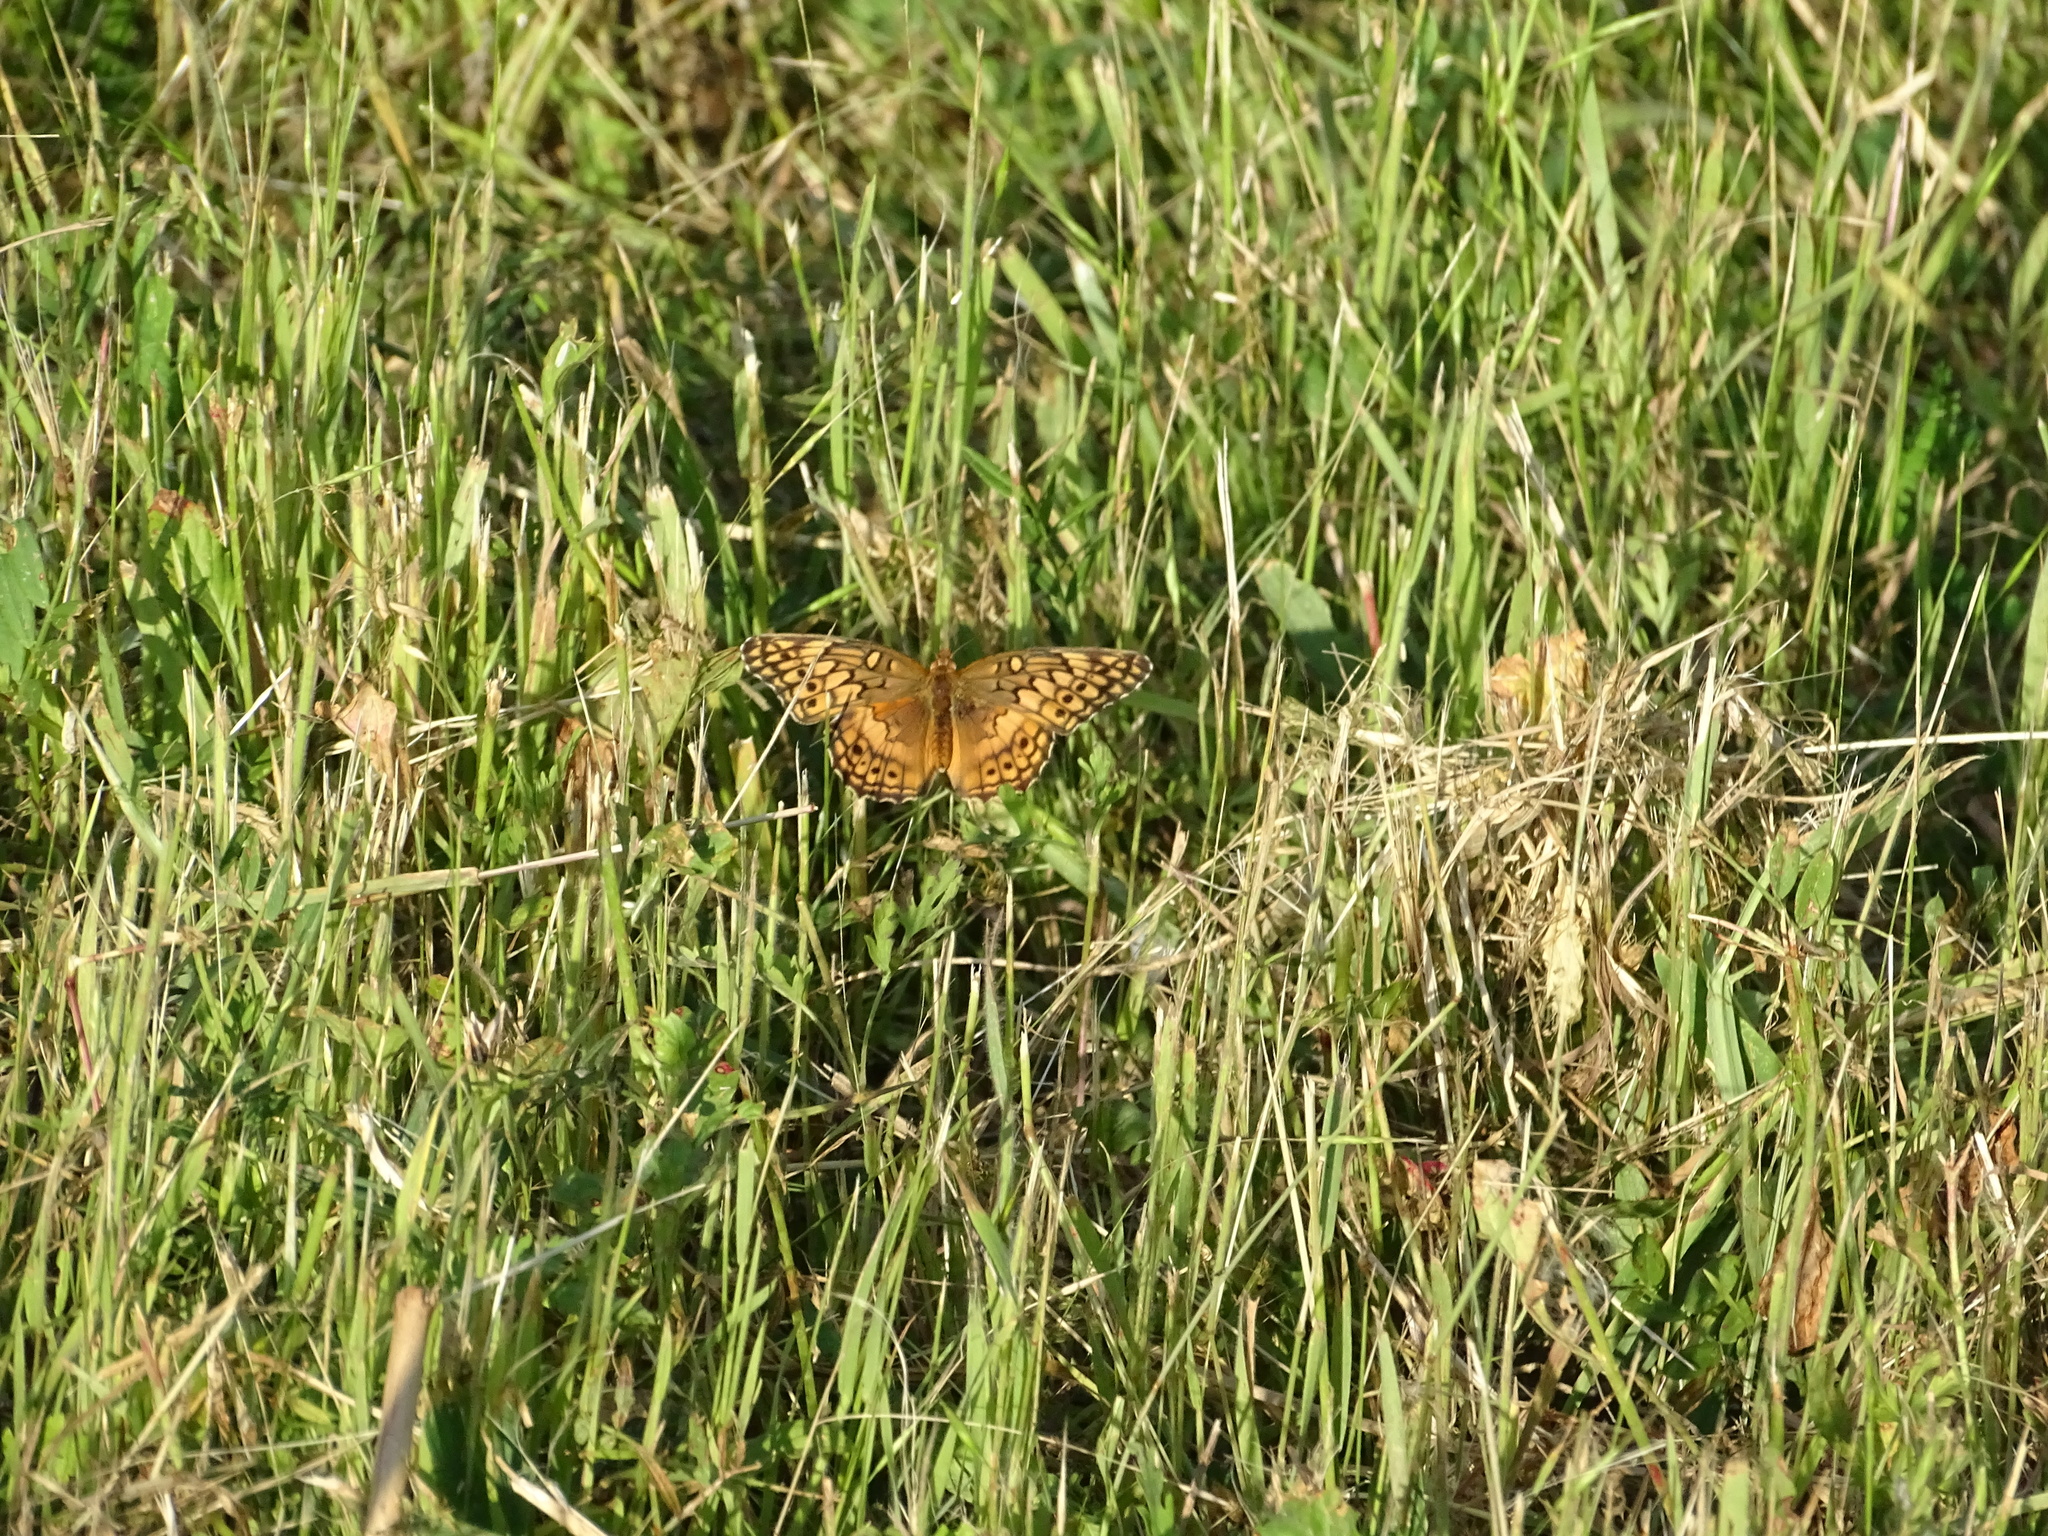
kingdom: Animalia
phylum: Arthropoda
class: Insecta
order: Lepidoptera
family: Nymphalidae
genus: Euptoieta
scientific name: Euptoieta claudia
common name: Variegated fritillary
